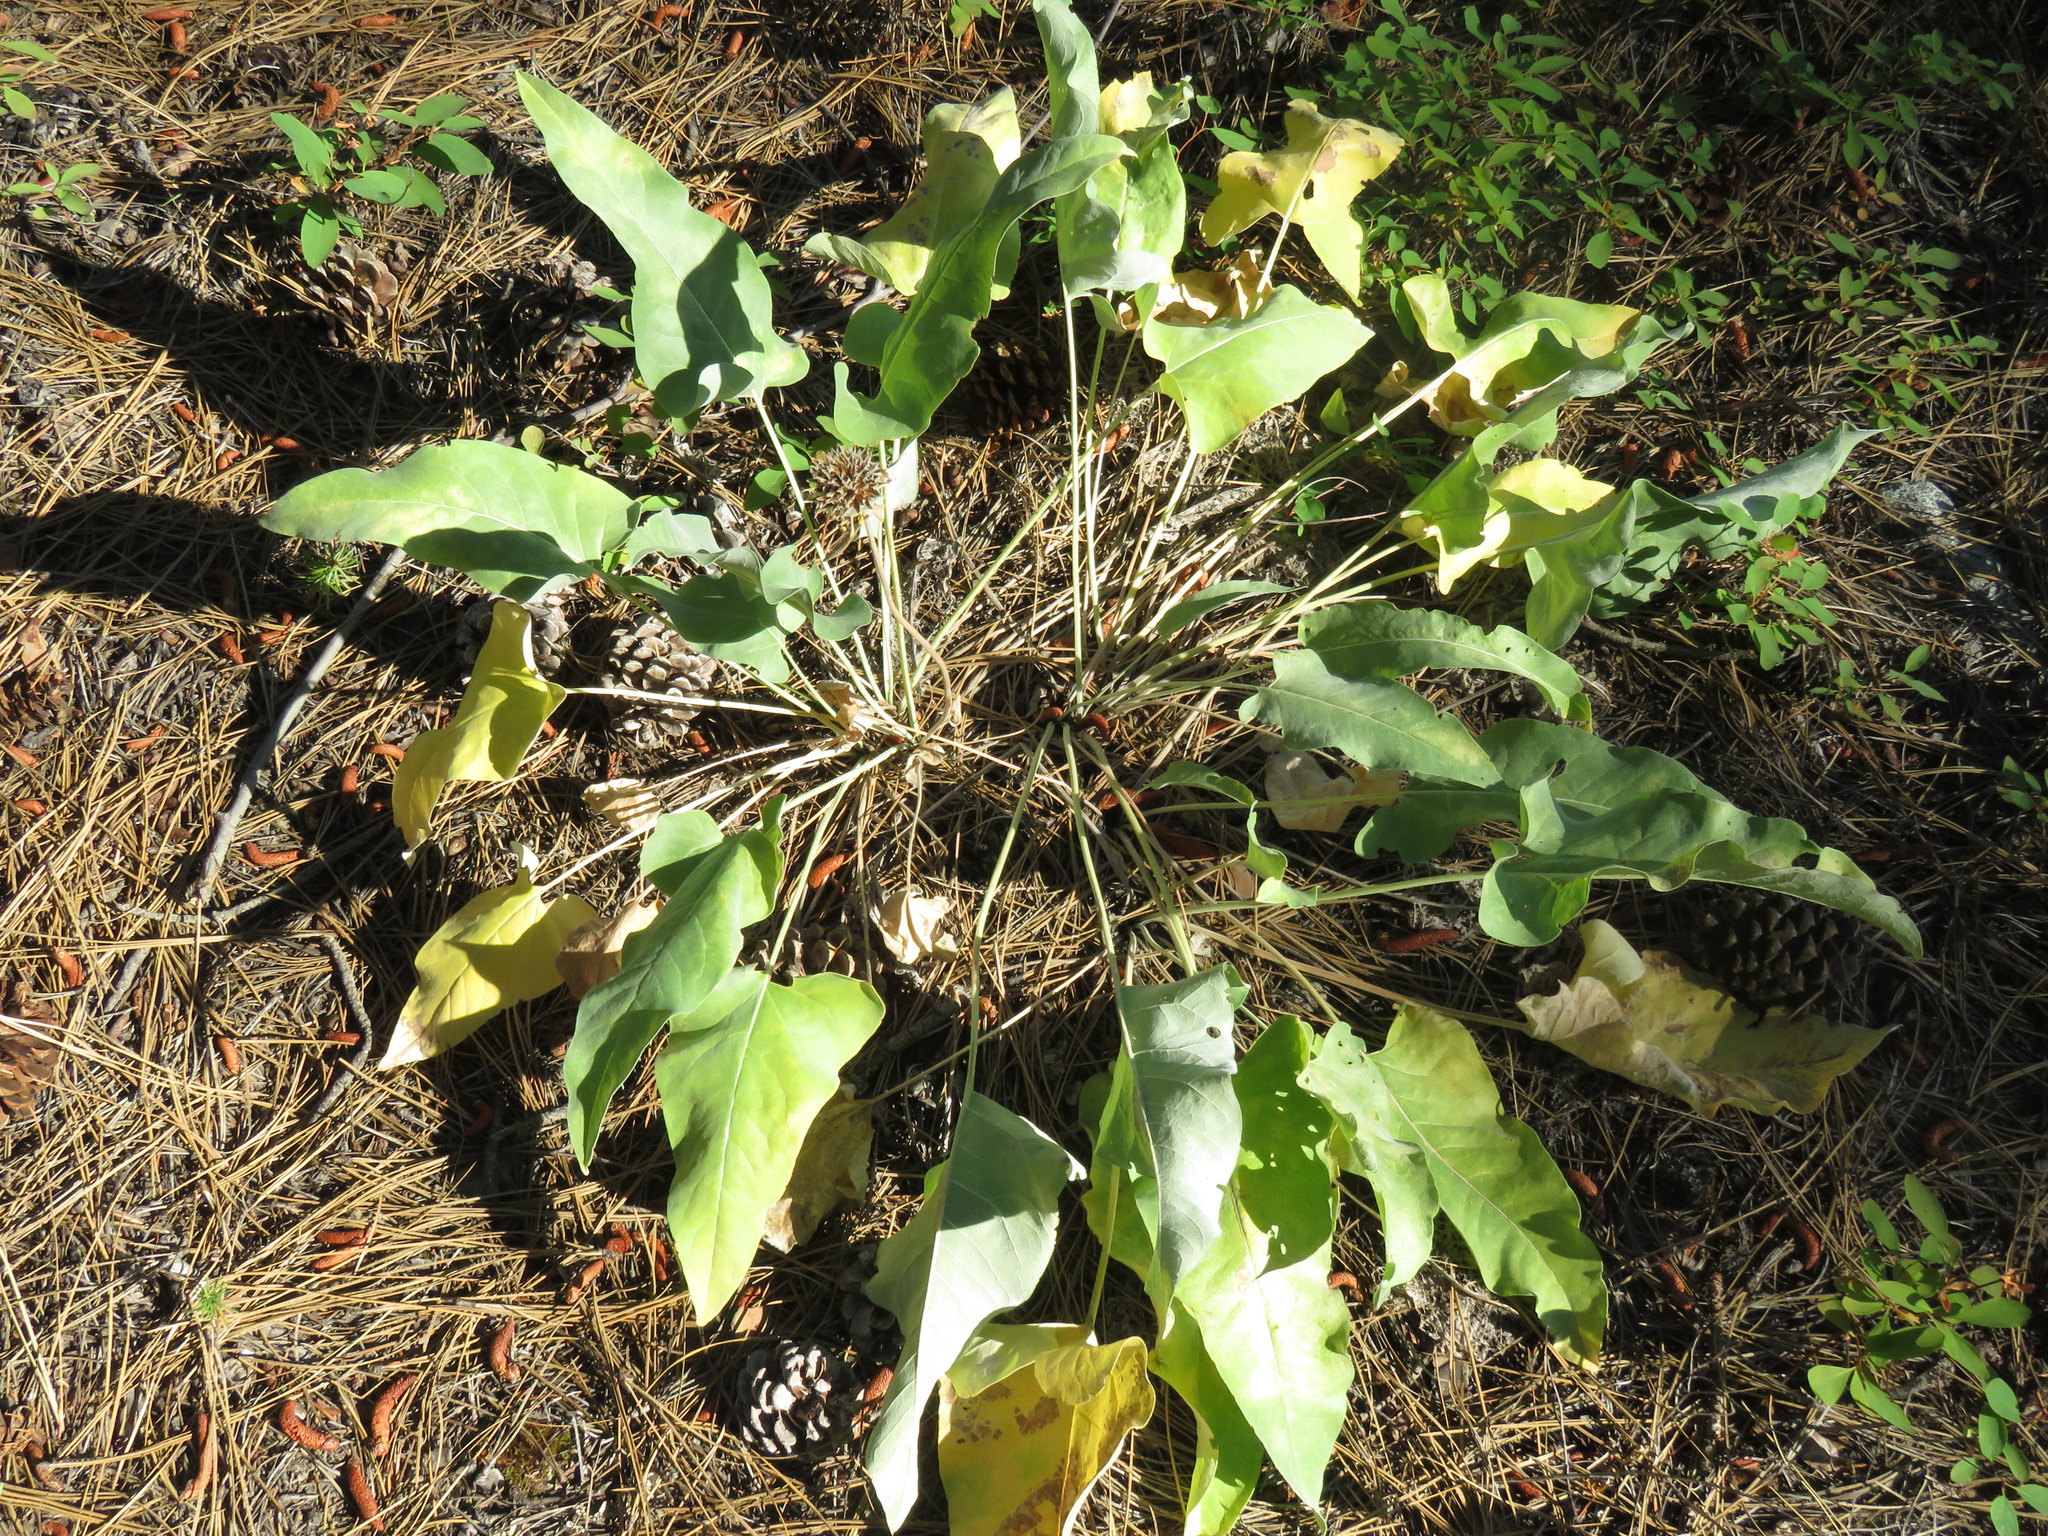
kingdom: Plantae
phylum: Tracheophyta
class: Magnoliopsida
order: Asterales
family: Asteraceae
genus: Wyethia
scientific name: Wyethia sagittata
